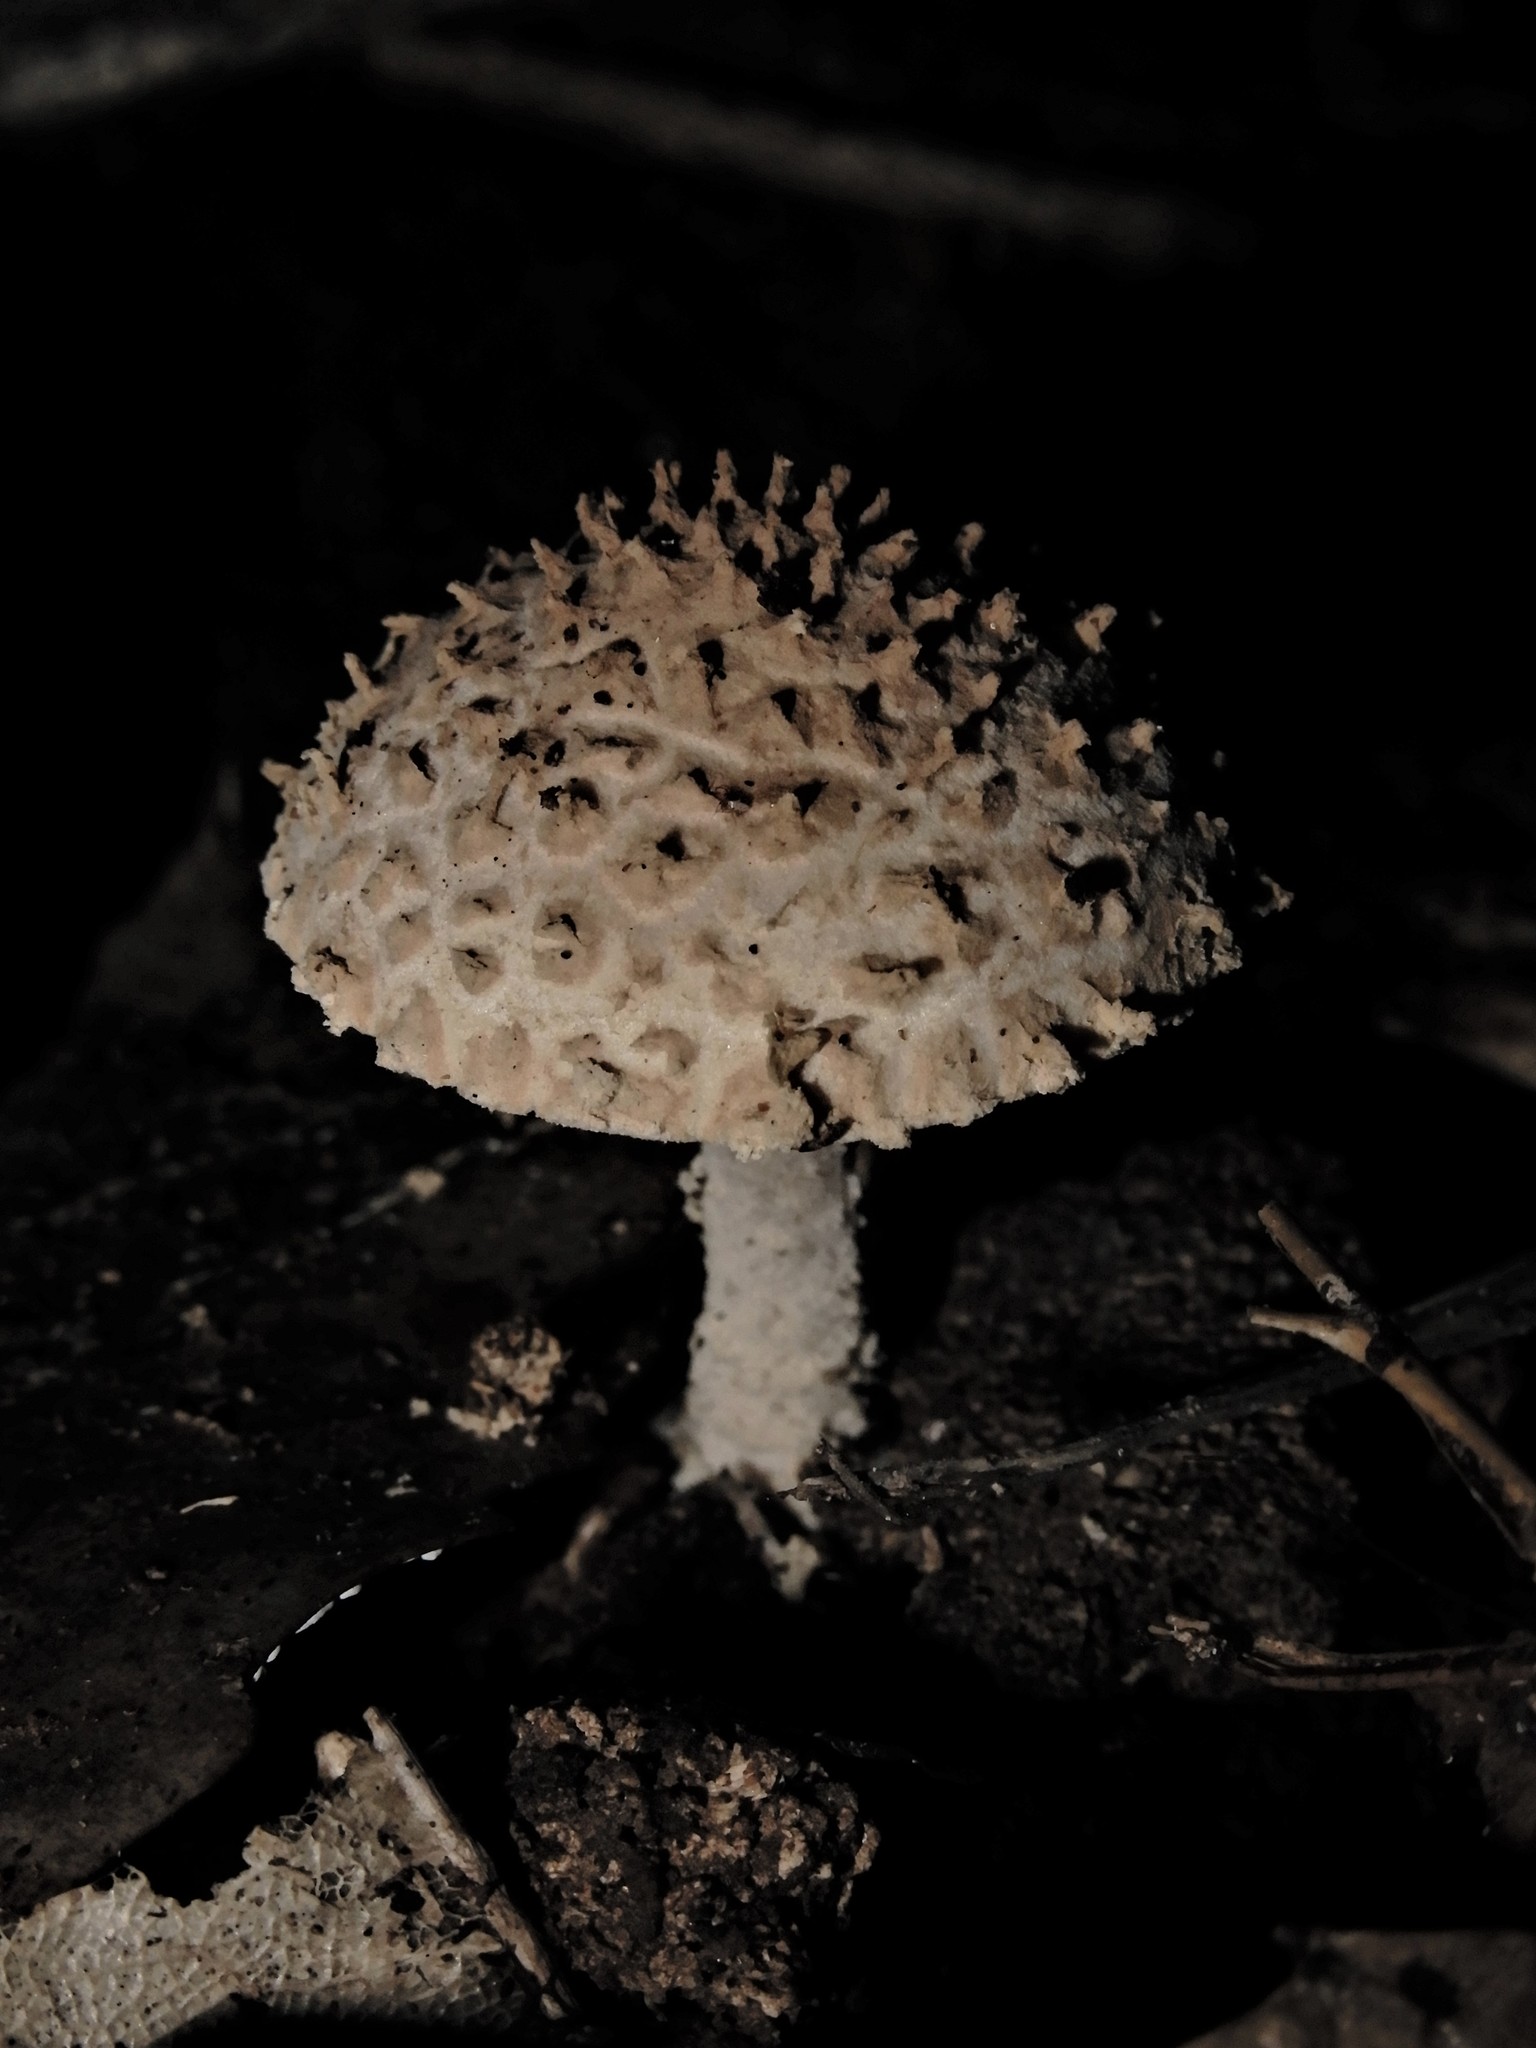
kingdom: Fungi
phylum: Basidiomycota
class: Agaricomycetes
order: Agaricales
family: Agaricaceae
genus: Cystolepiota
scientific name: Cystolepiota
